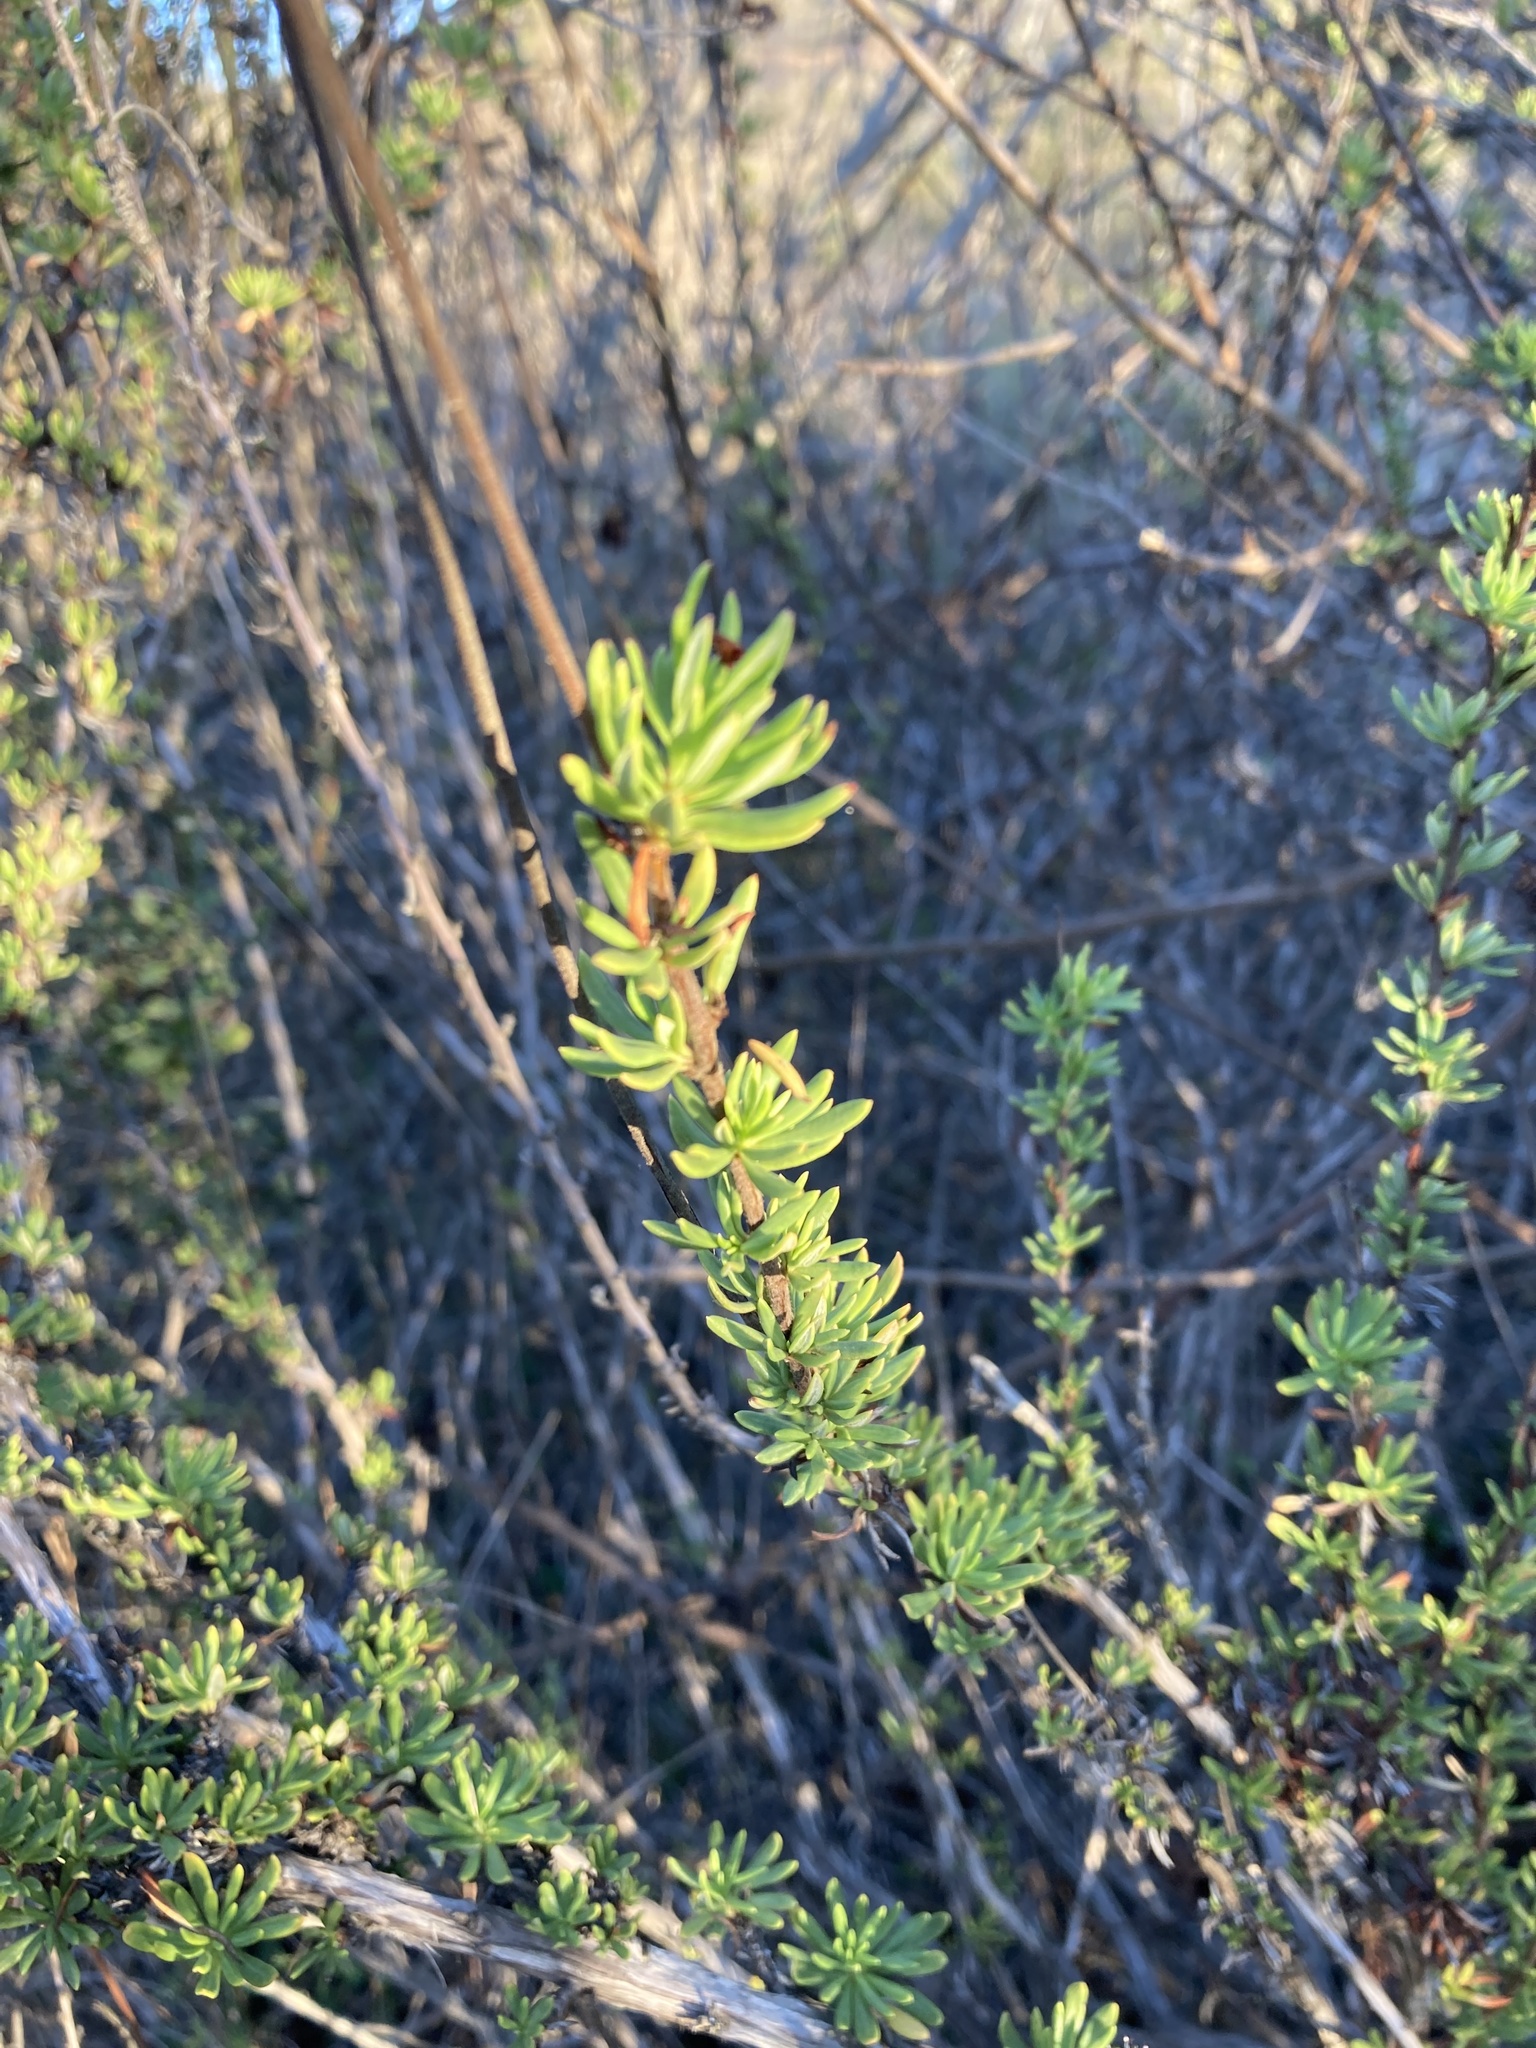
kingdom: Plantae
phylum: Tracheophyta
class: Magnoliopsida
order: Caryophyllales
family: Polygonaceae
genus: Eriogonum
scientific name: Eriogonum fasciculatum
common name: California wild buckwheat
